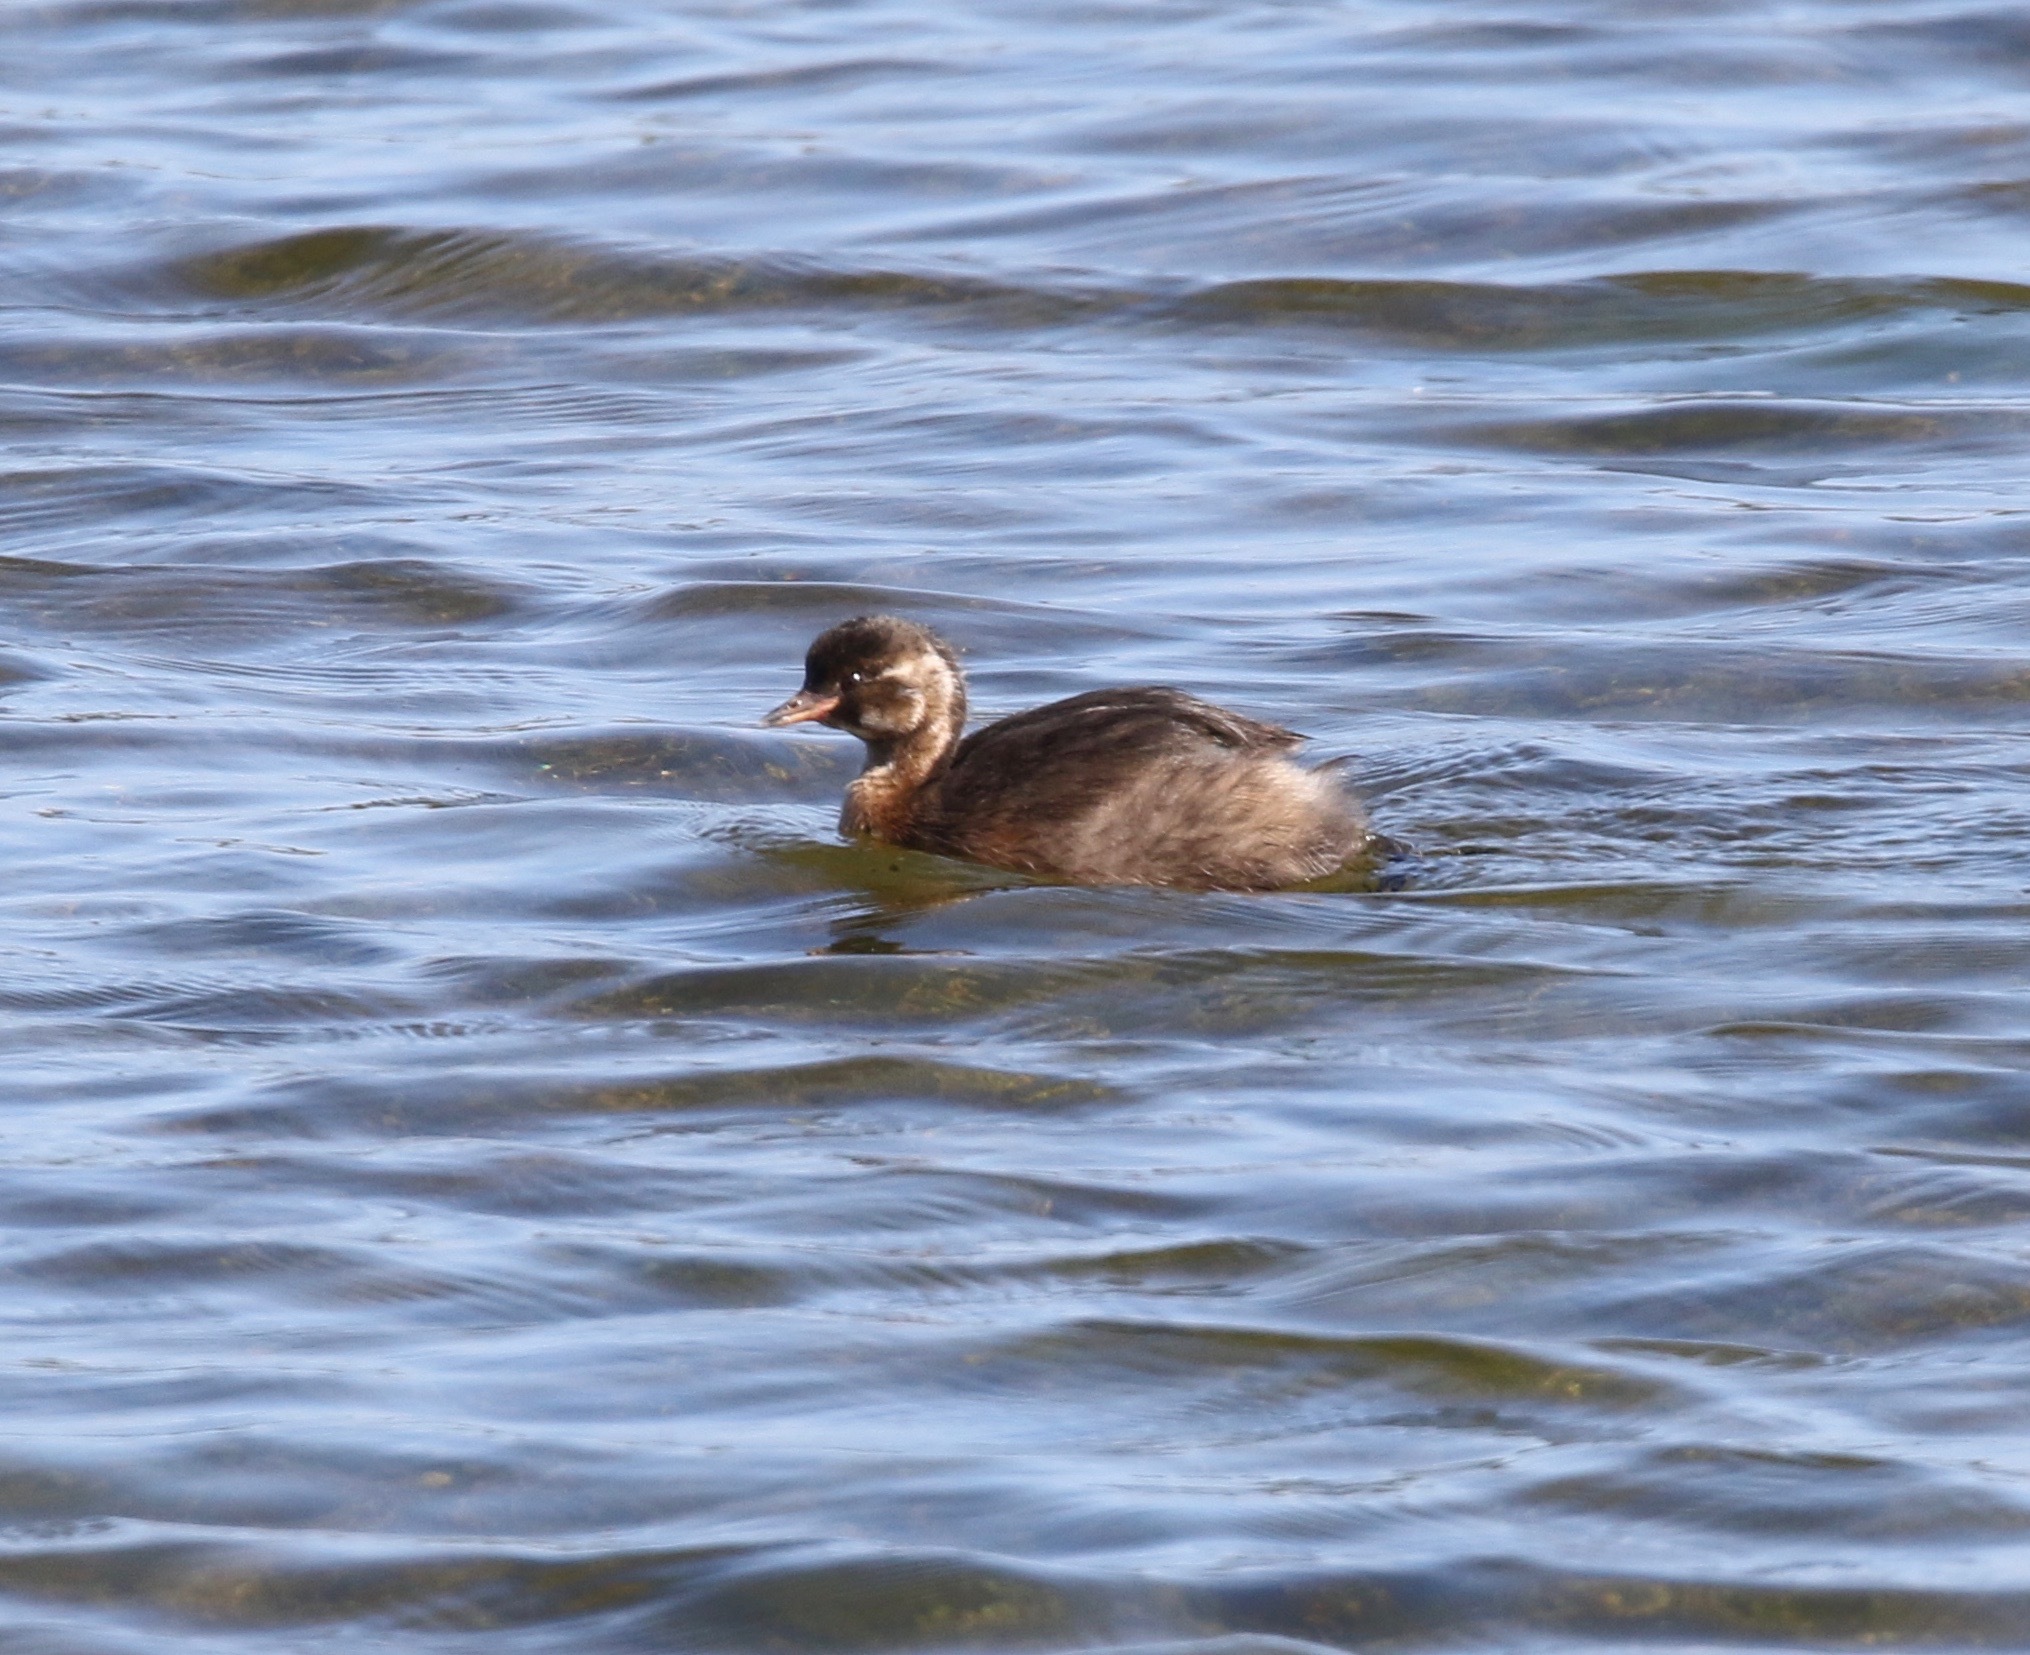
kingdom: Animalia
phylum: Chordata
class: Aves
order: Podicipediformes
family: Podicipedidae
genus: Tachybaptus
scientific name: Tachybaptus ruficollis
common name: Little grebe
